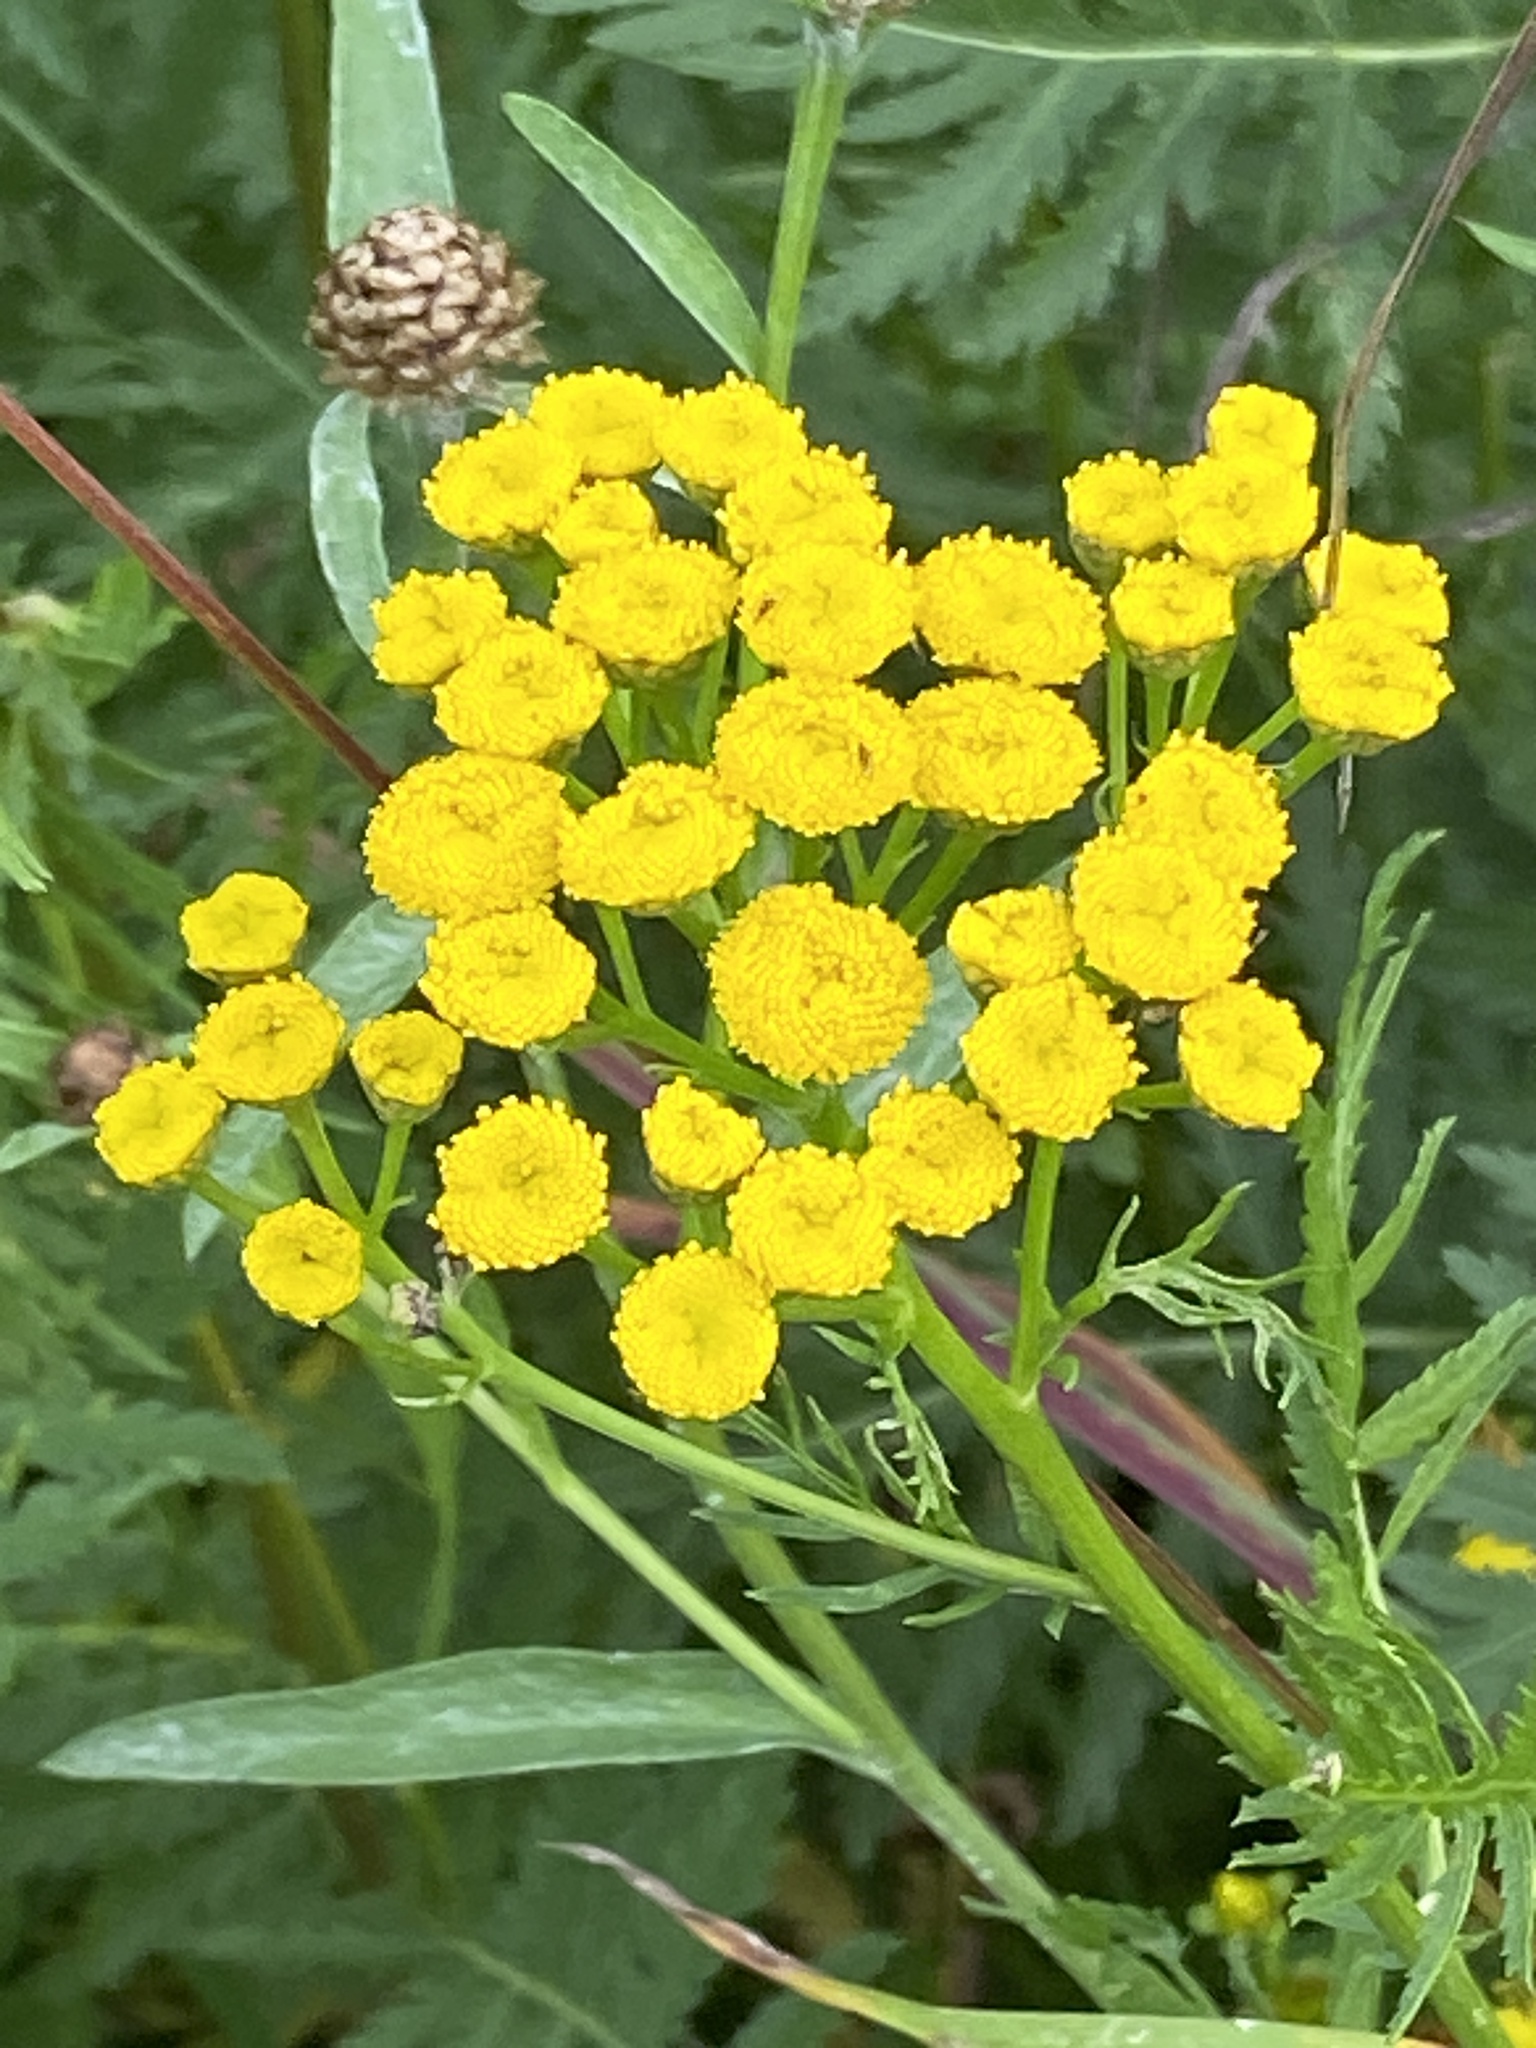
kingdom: Plantae
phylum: Tracheophyta
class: Magnoliopsida
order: Asterales
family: Asteraceae
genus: Tanacetum
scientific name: Tanacetum vulgare
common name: Common tansy
